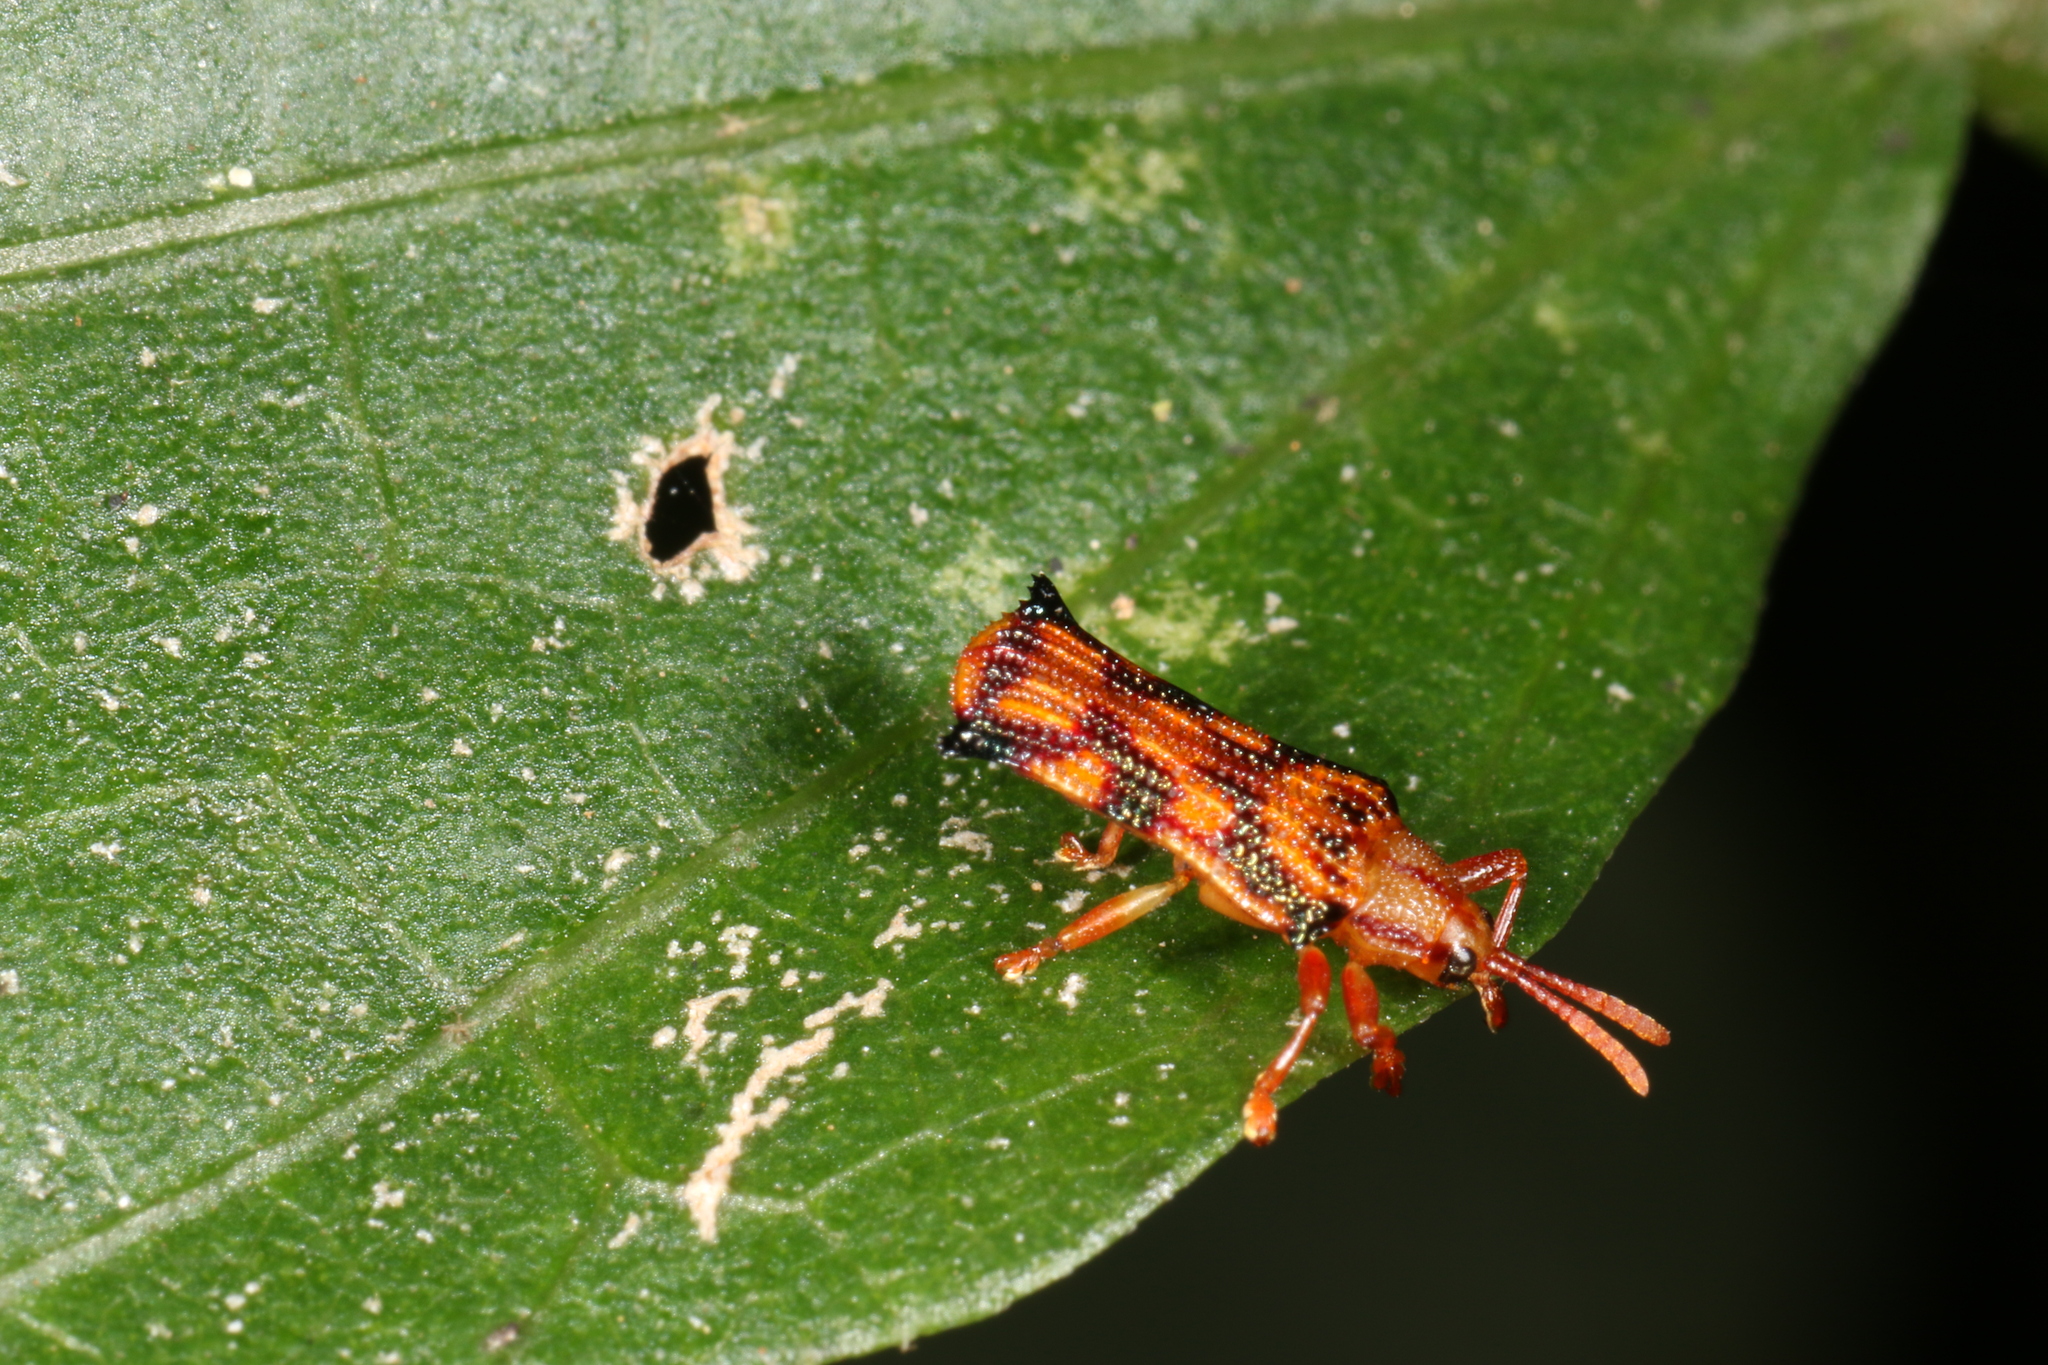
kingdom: Animalia
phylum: Arthropoda
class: Insecta
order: Coleoptera
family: Chrysomelidae
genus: Stethispa
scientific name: Stethispa rudgeana
